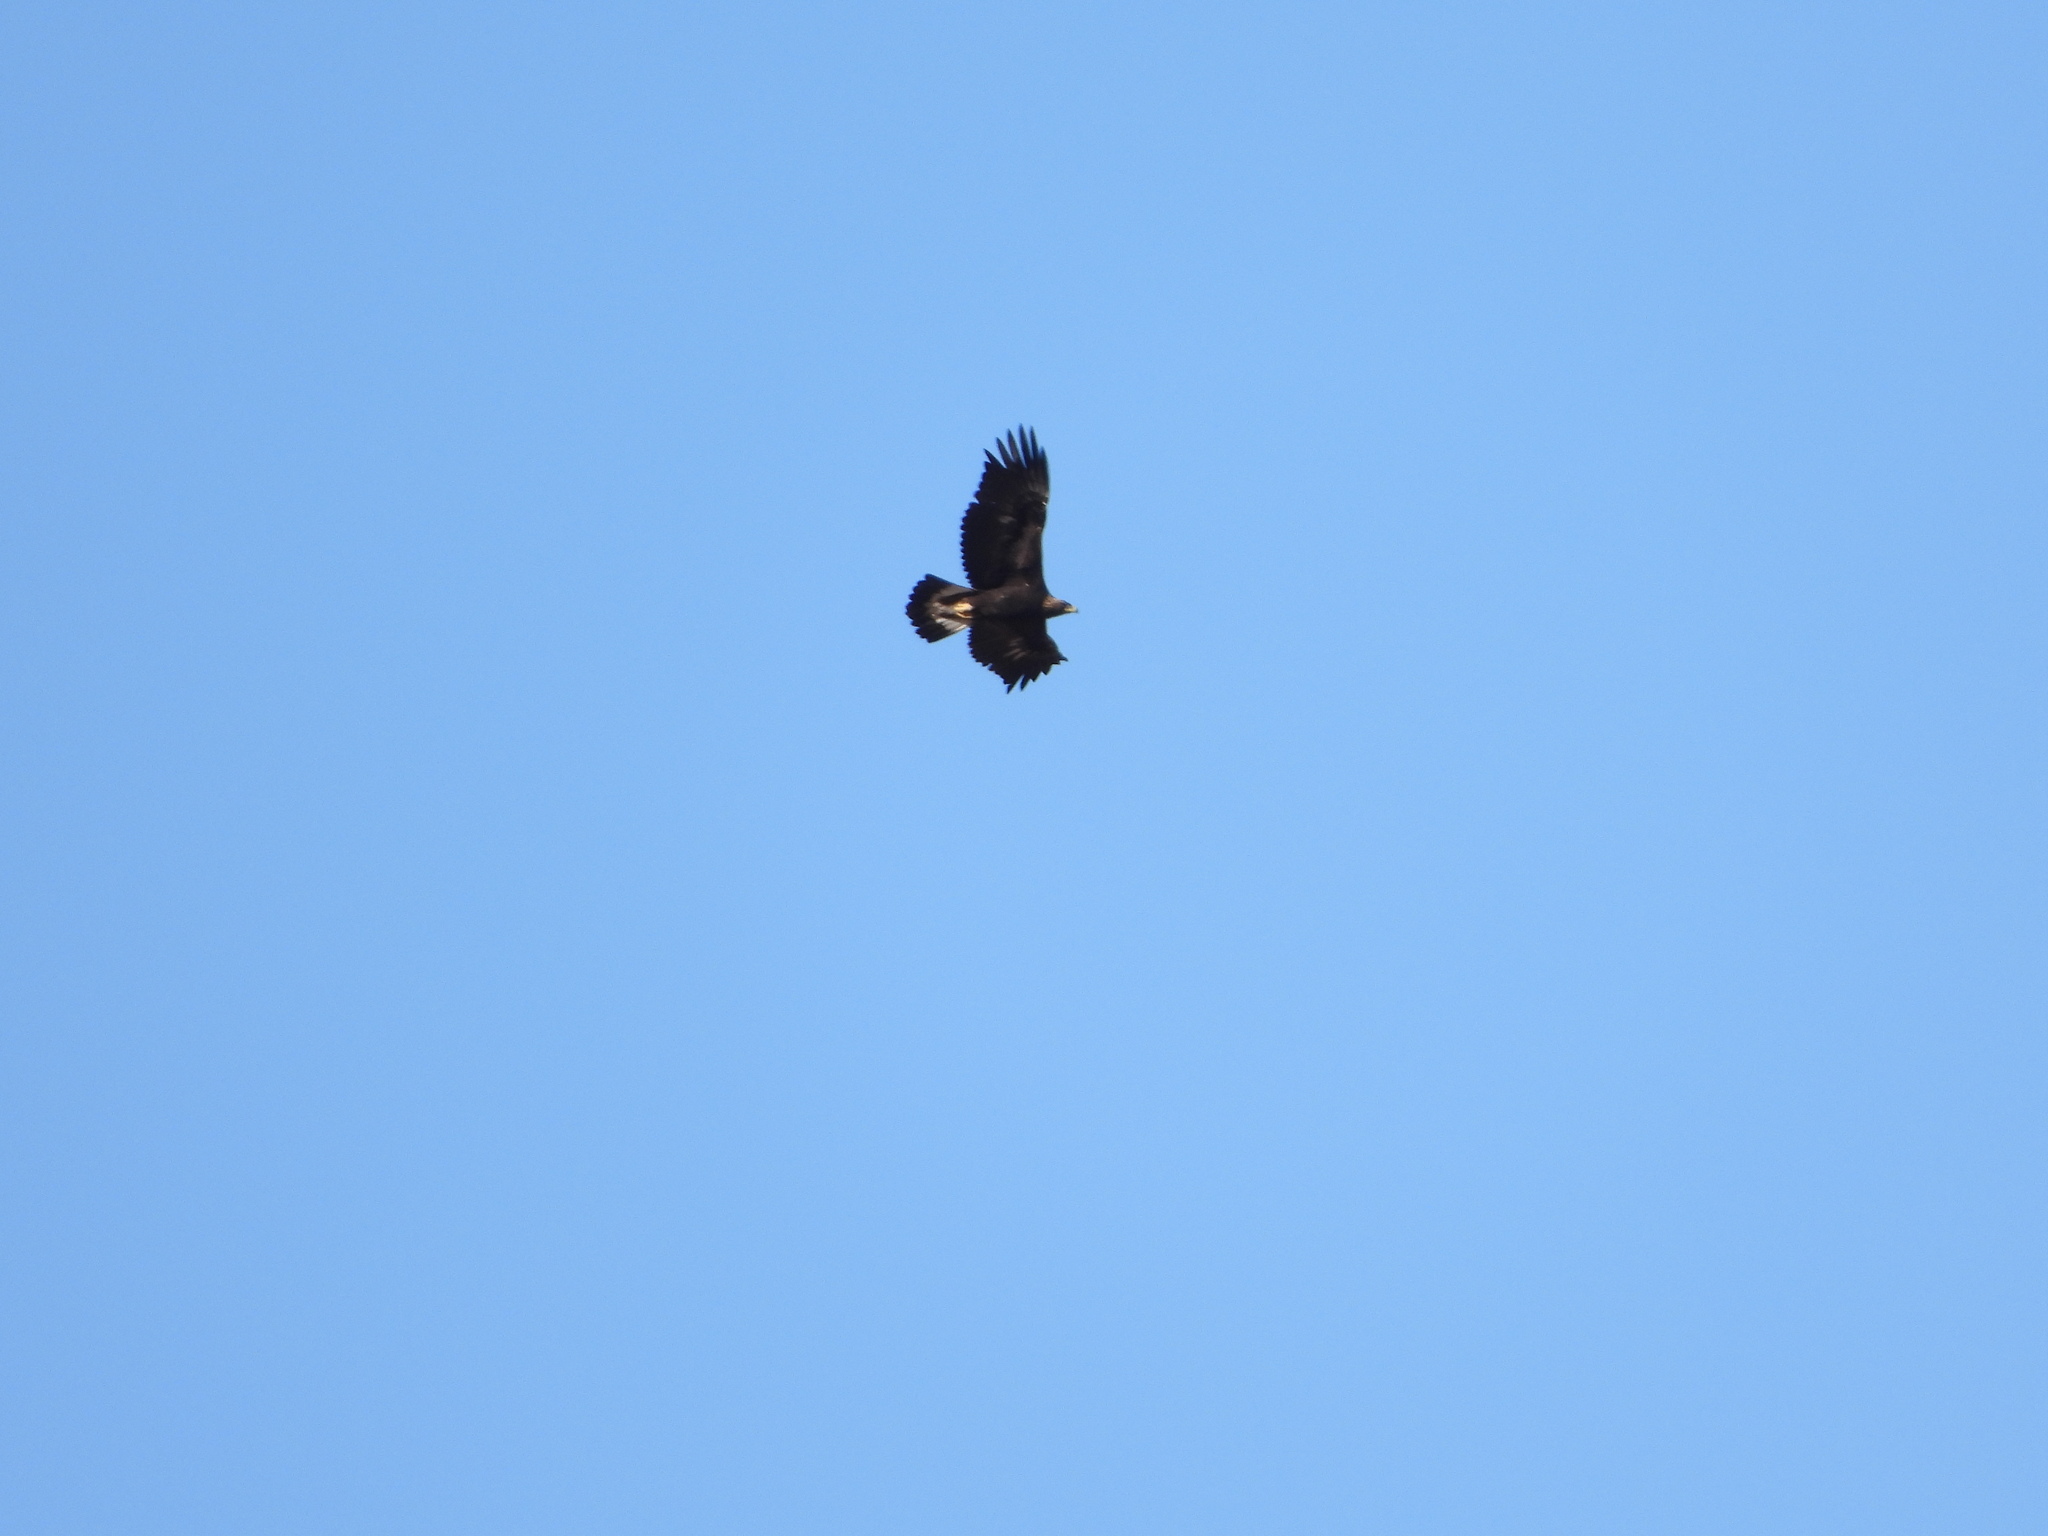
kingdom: Animalia
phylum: Chordata
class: Aves
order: Accipitriformes
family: Accipitridae
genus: Aquila
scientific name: Aquila chrysaetos
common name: Golden eagle
